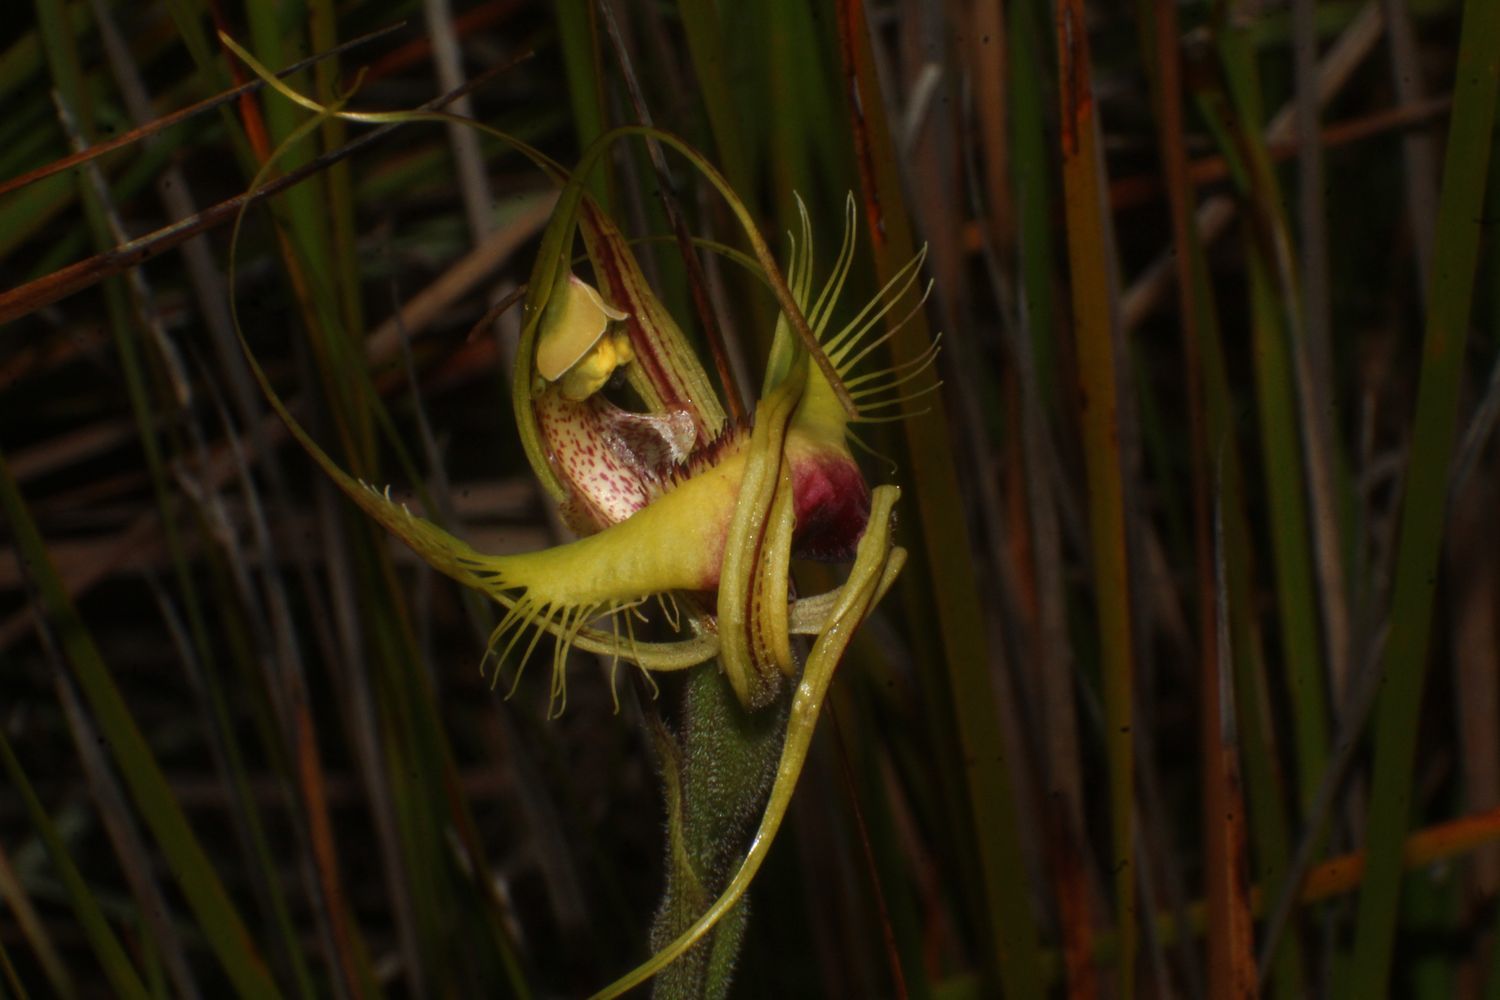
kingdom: Plantae
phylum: Tracheophyta
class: Liliopsida
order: Asparagales
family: Orchidaceae
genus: Caladenia
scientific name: Caladenia lobata
